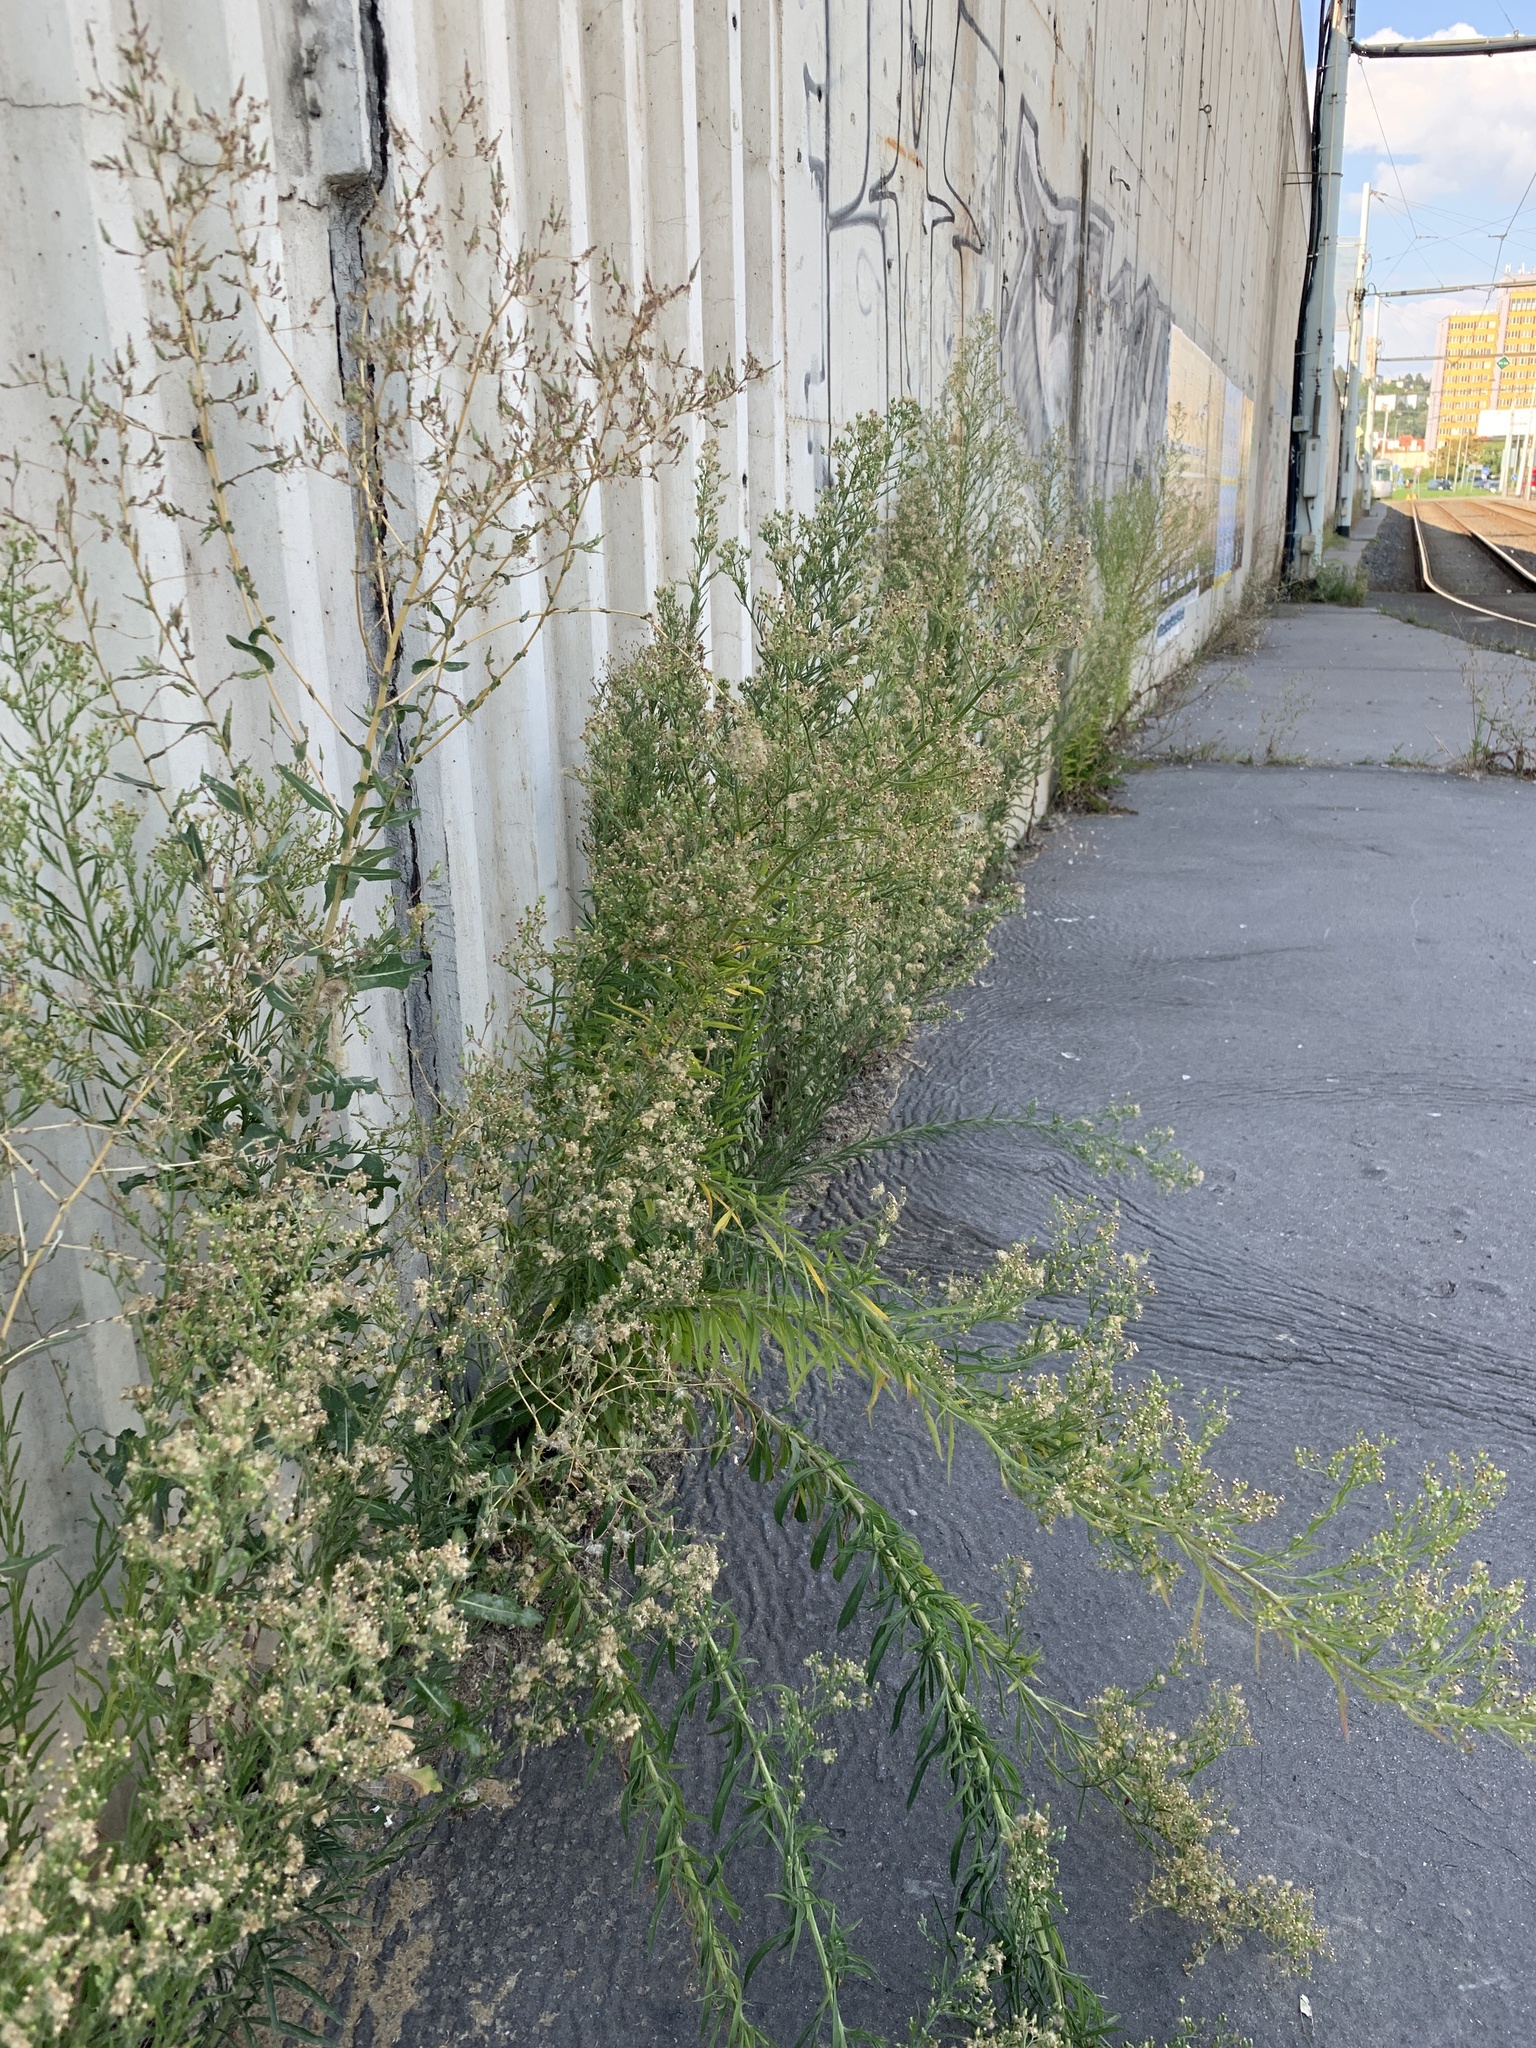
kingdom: Plantae
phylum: Tracheophyta
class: Magnoliopsida
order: Asterales
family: Asteraceae
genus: Erigeron
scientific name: Erigeron canadensis
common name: Canadian fleabane
